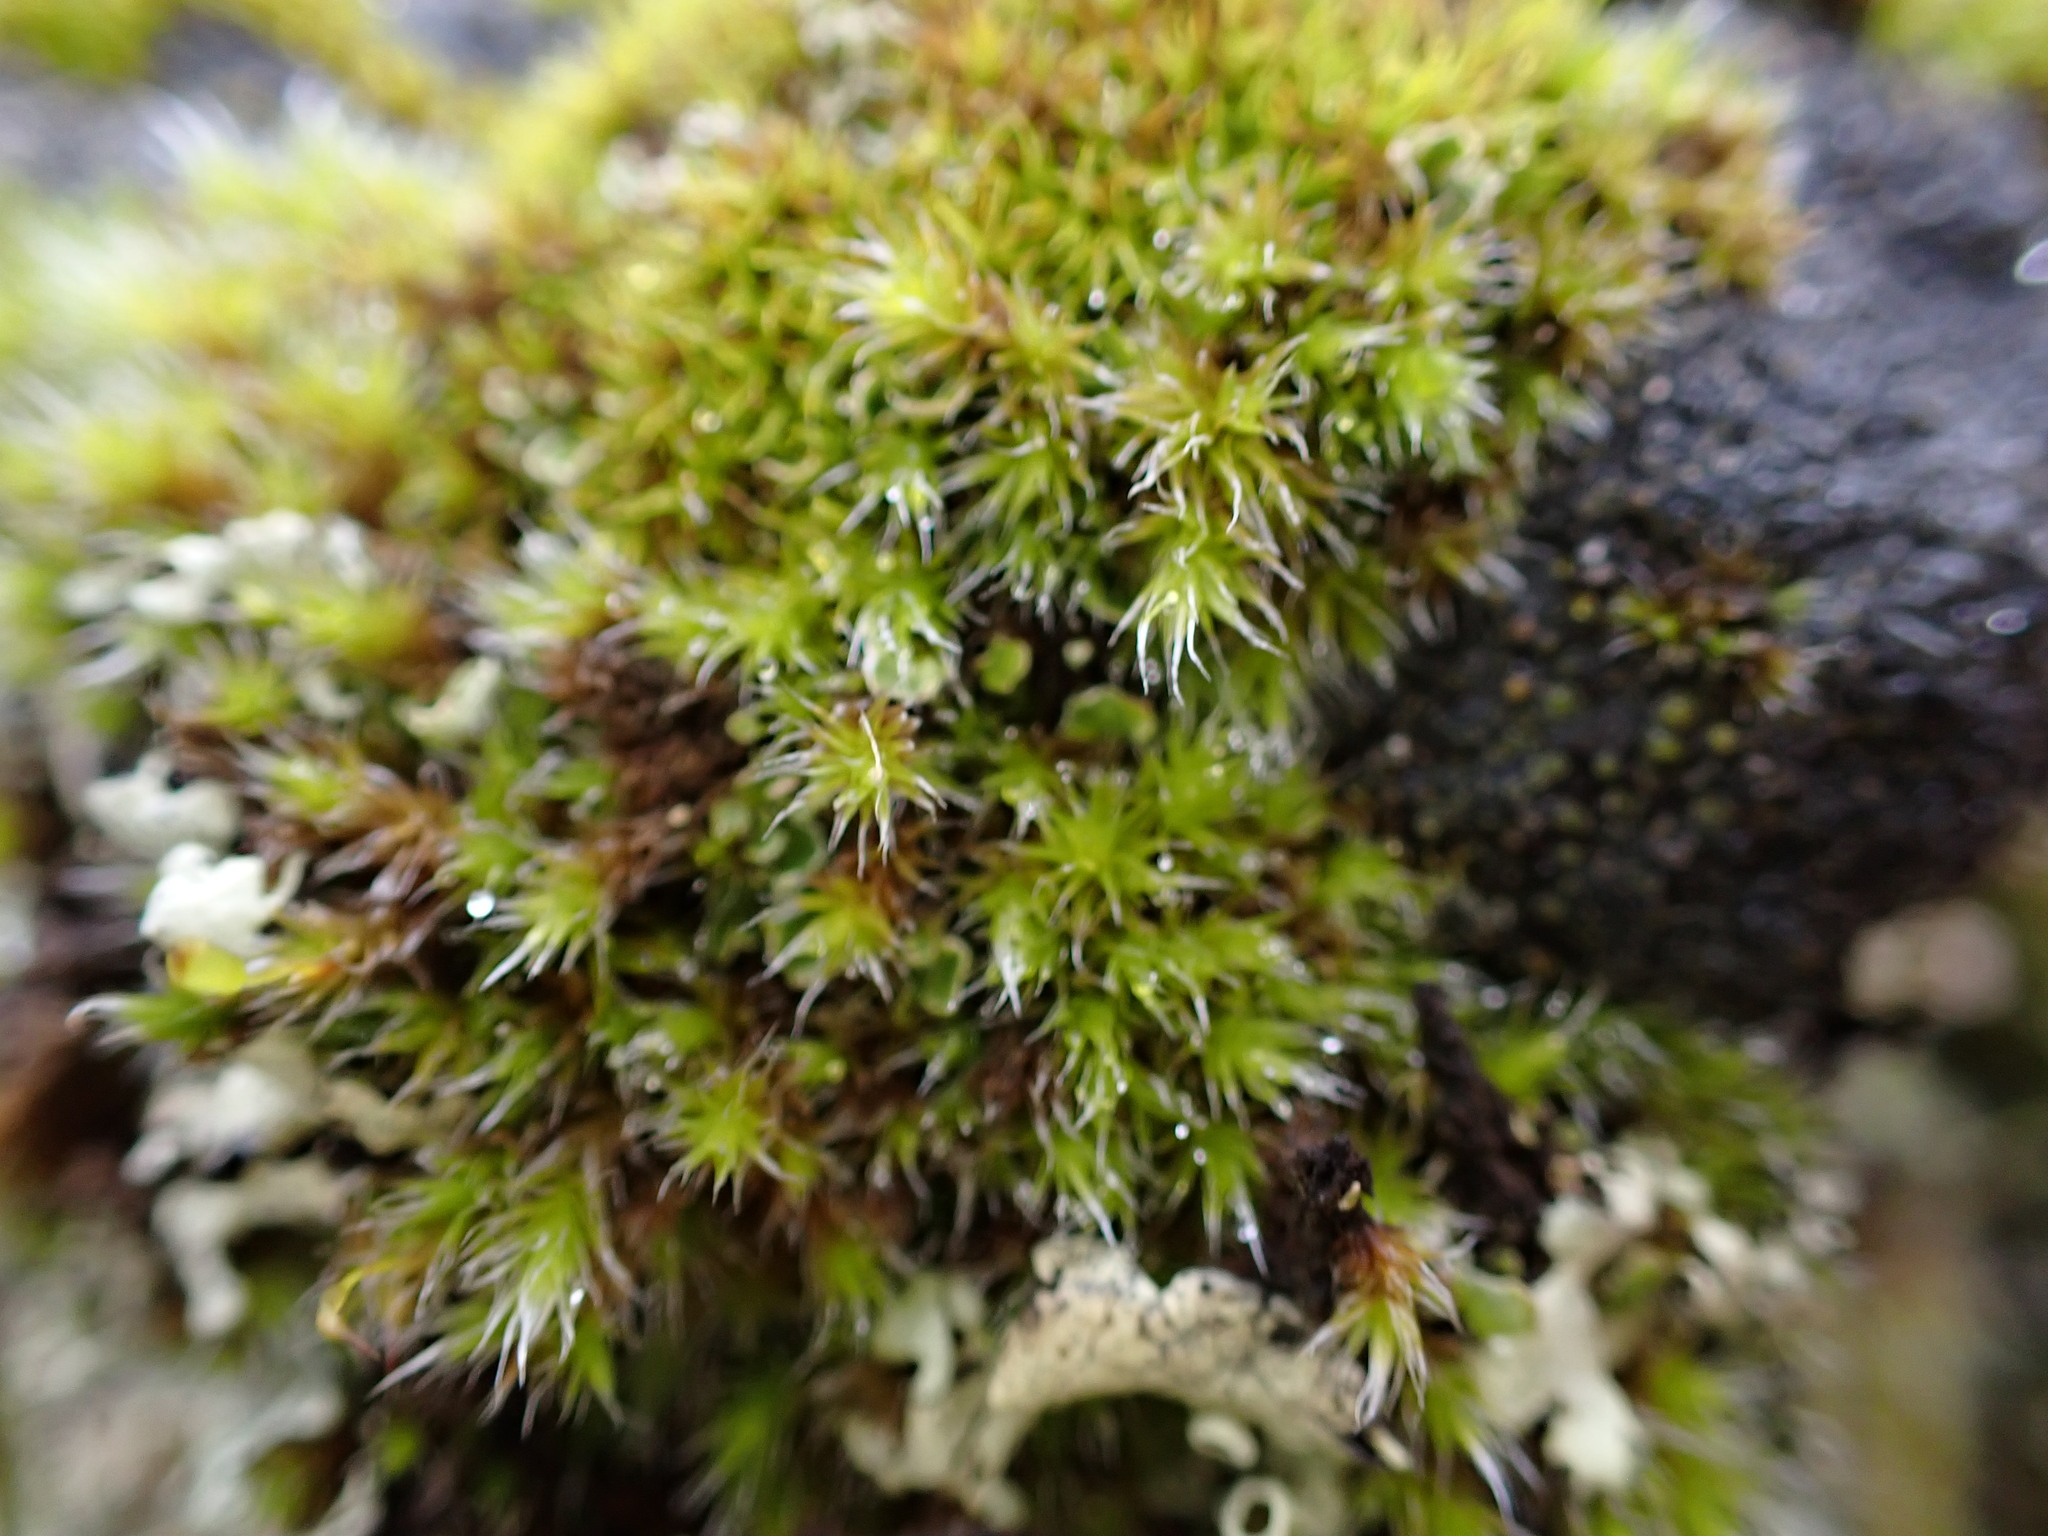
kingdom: Plantae
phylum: Bryophyta
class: Bryopsida
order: Grimmiales
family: Grimmiaceae
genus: Bucklandiella
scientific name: Bucklandiella heterosticha
